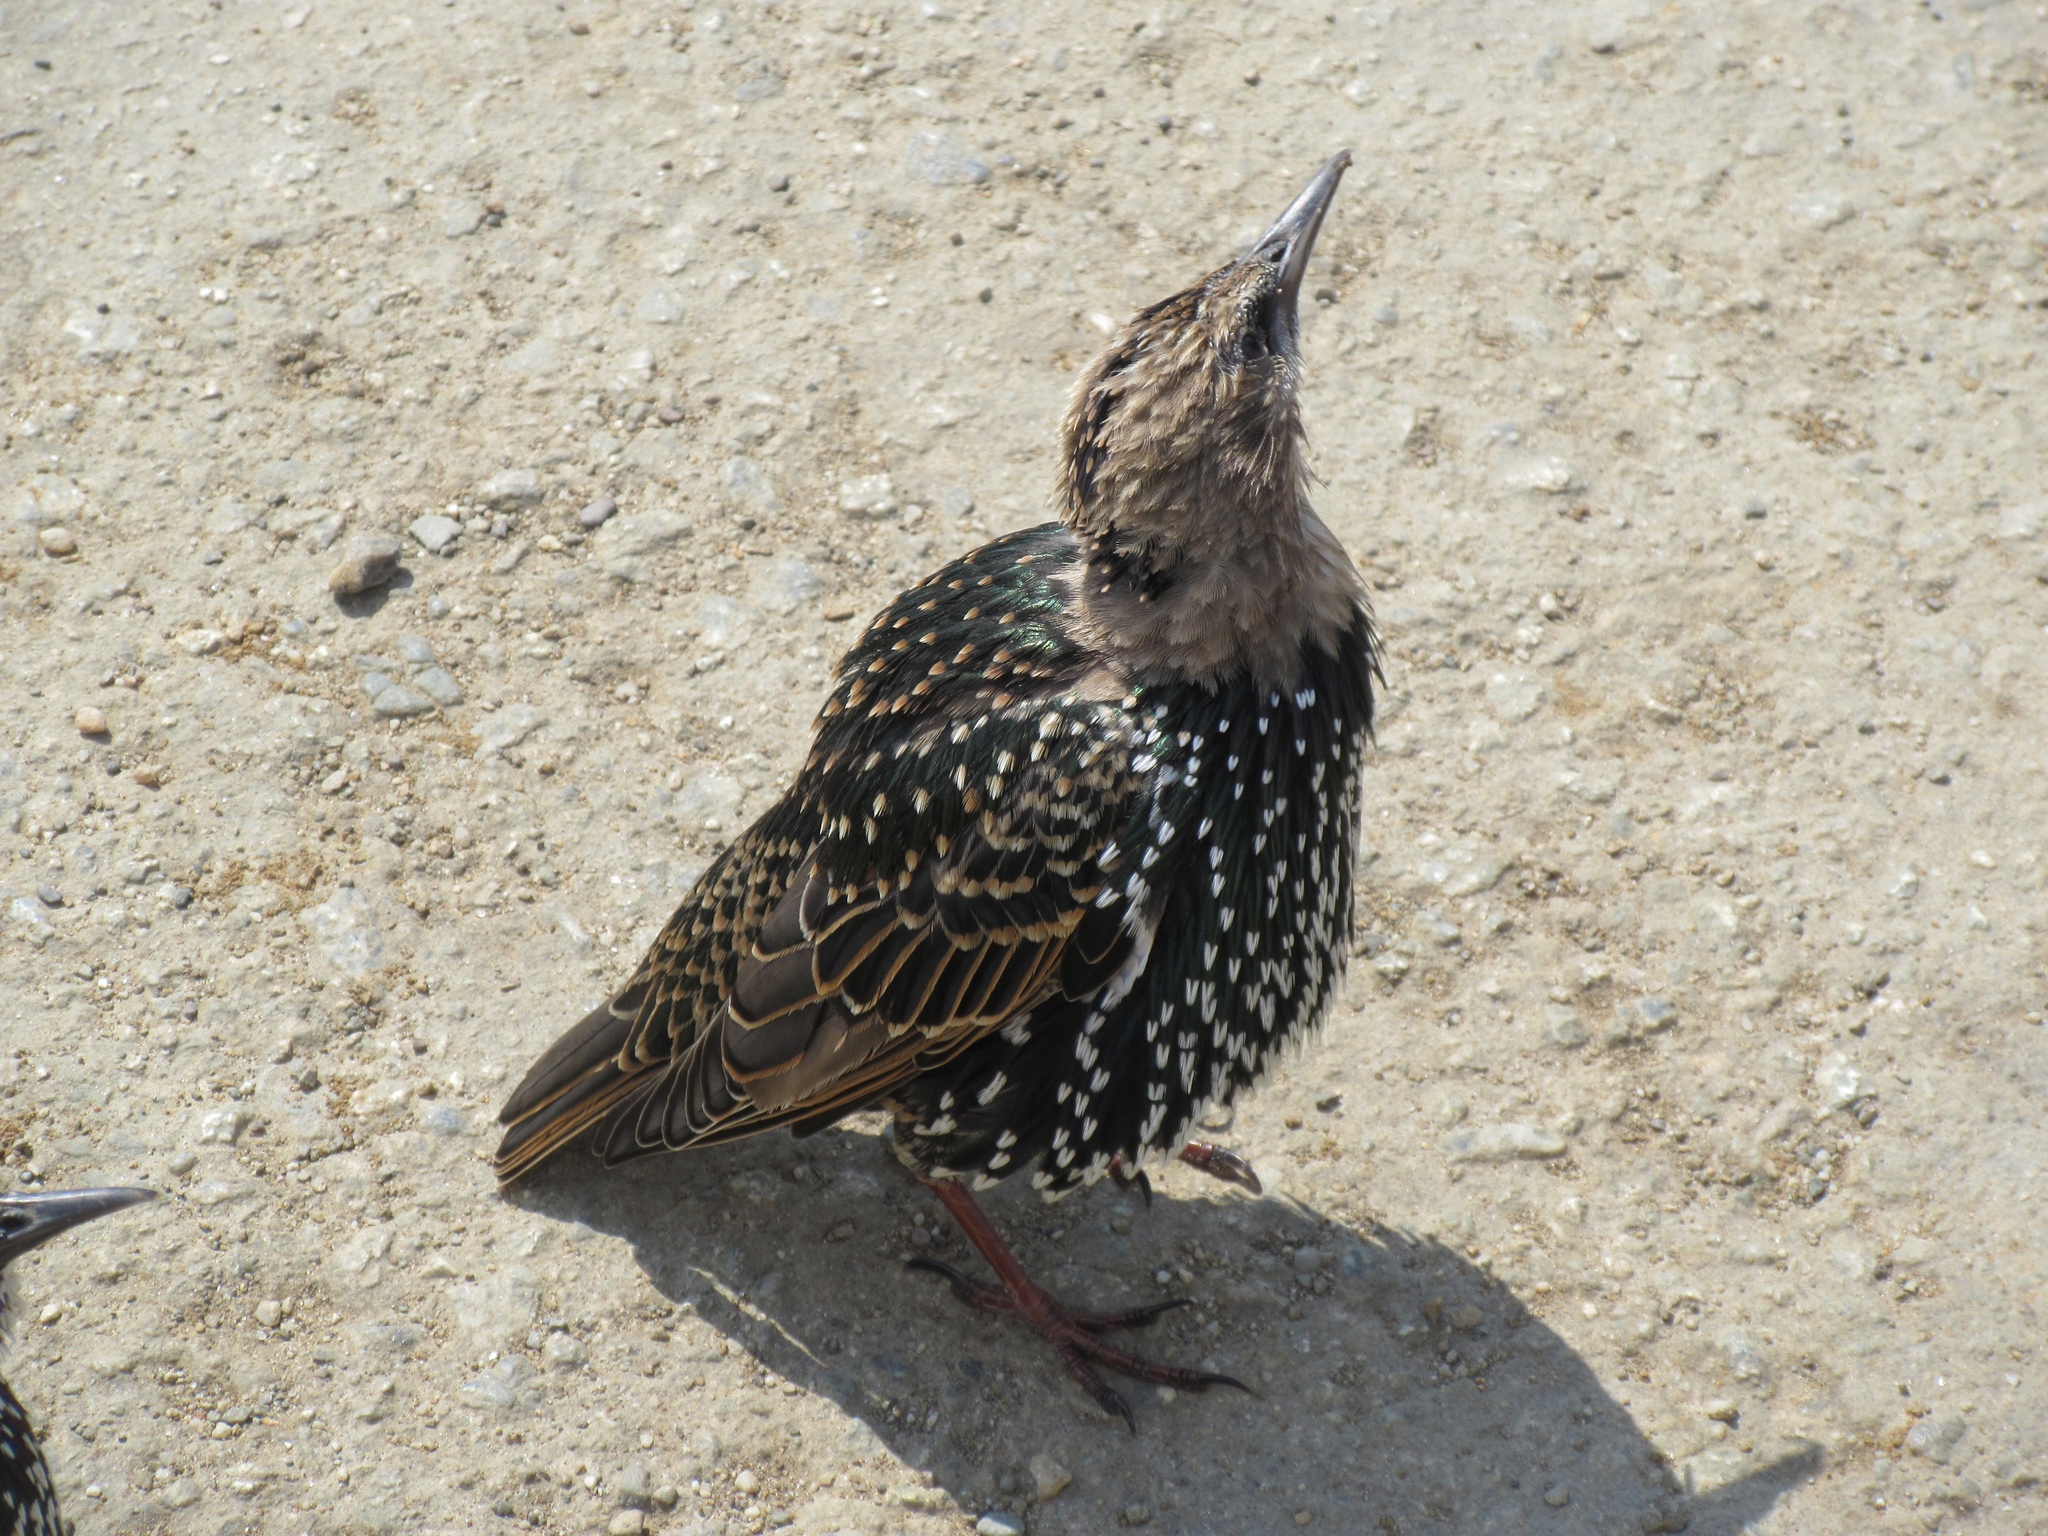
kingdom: Animalia
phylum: Chordata
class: Aves
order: Passeriformes
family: Sturnidae
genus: Sturnus
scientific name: Sturnus vulgaris
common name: Common starling
